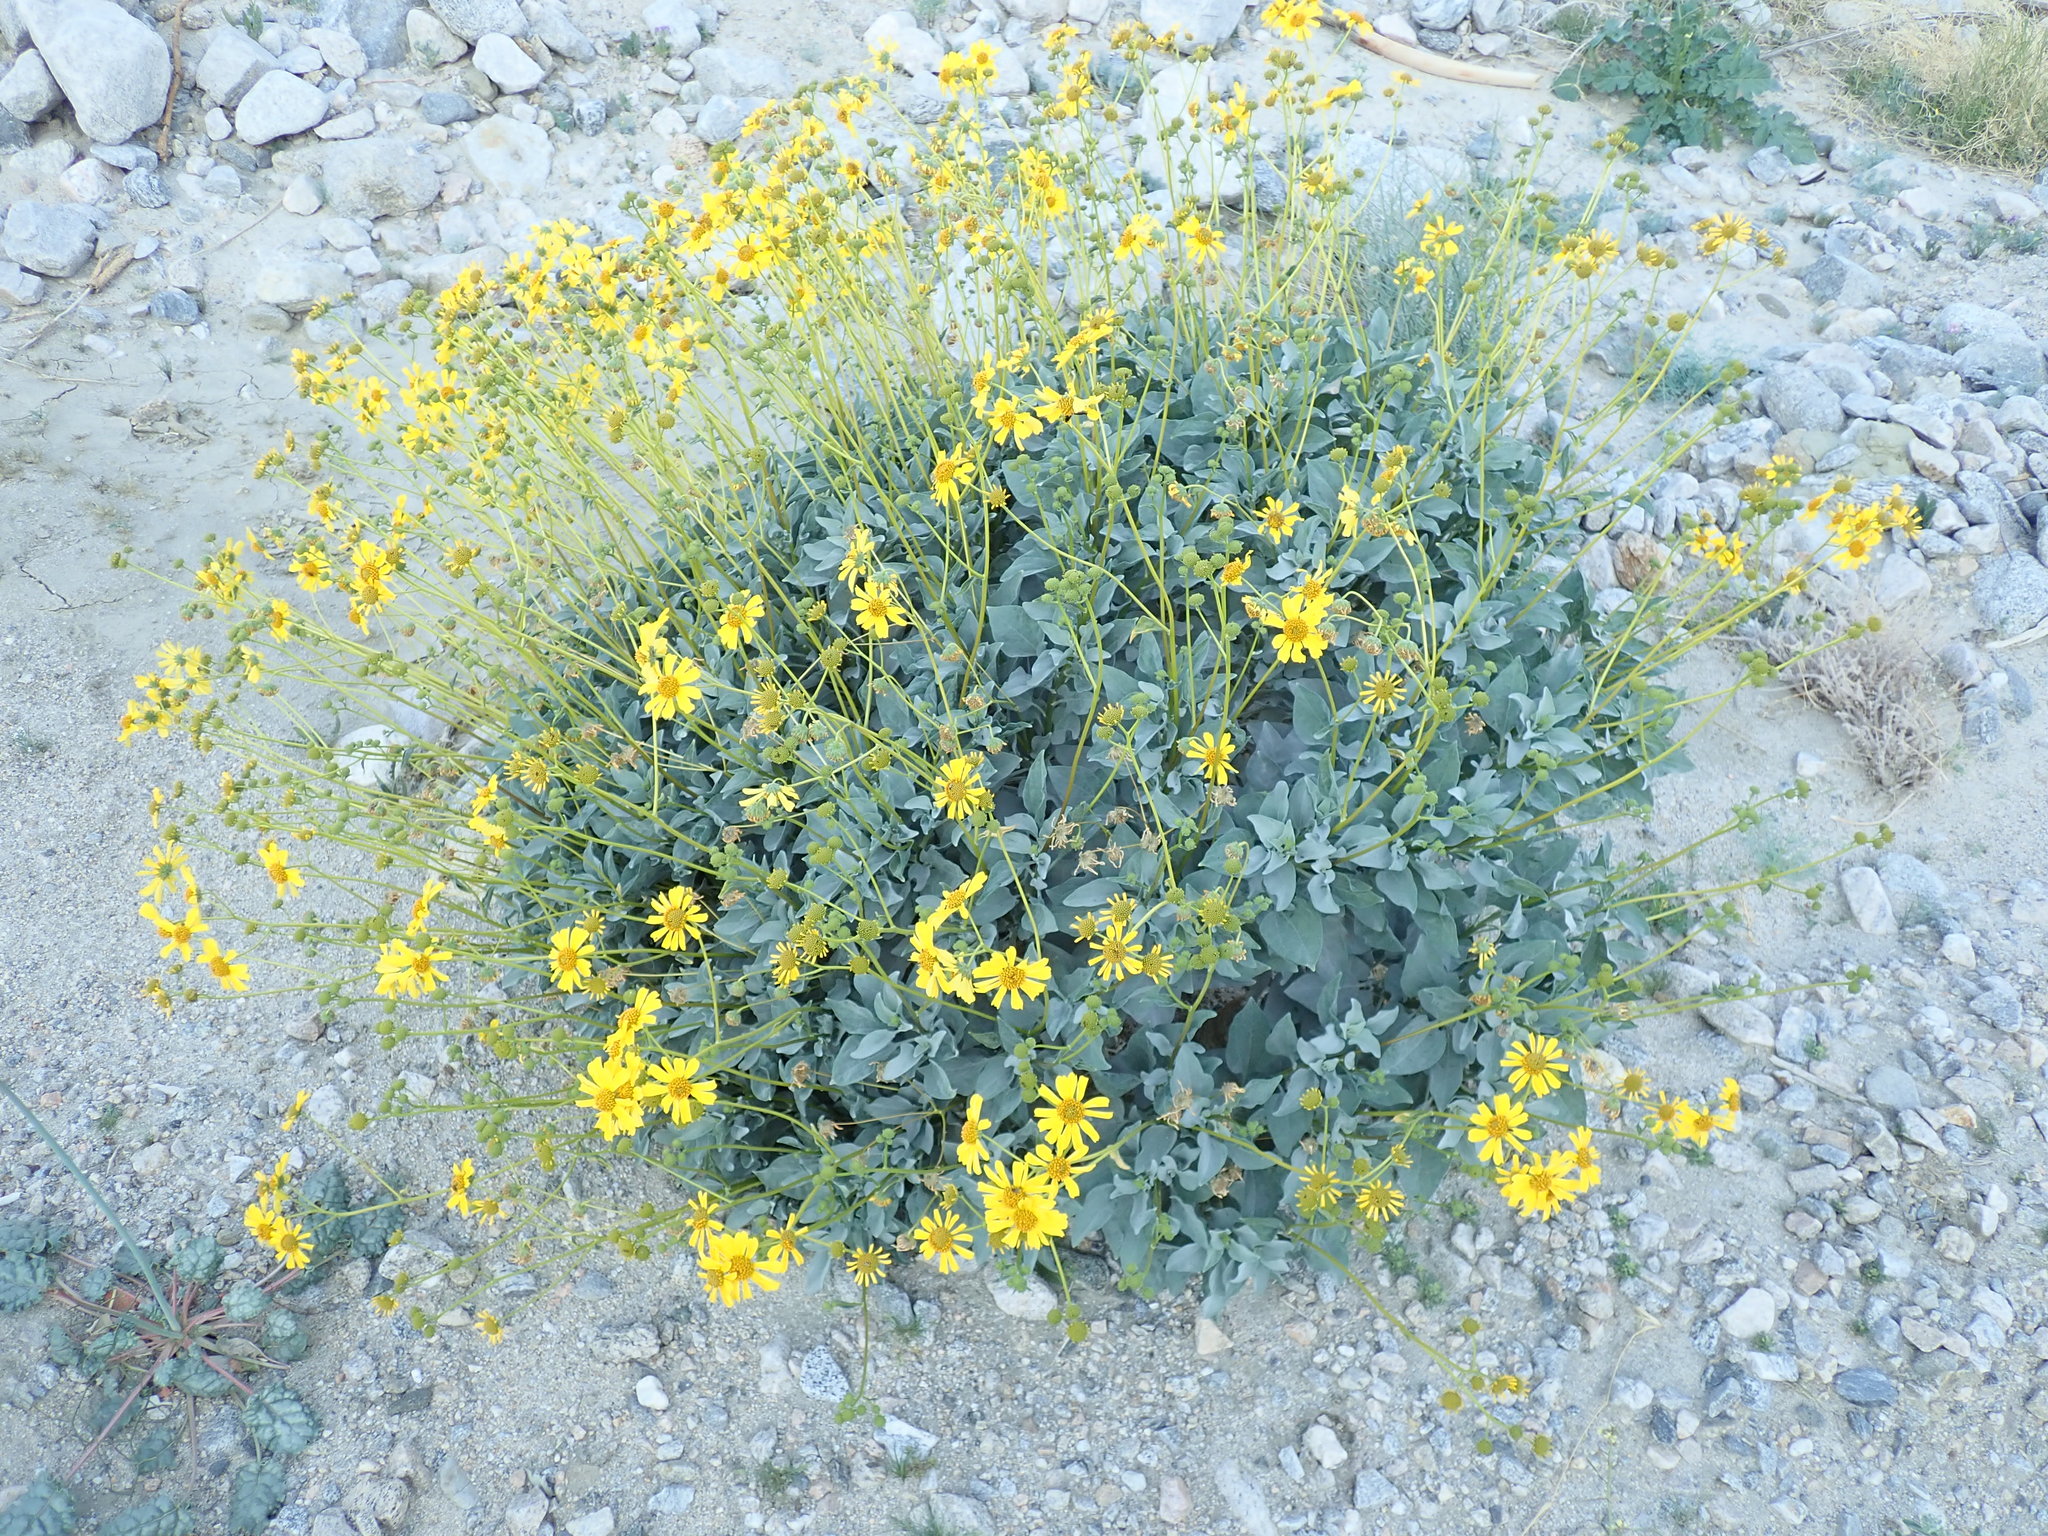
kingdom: Plantae
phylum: Tracheophyta
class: Magnoliopsida
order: Asterales
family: Asteraceae
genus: Encelia
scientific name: Encelia farinosa
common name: Brittlebush
